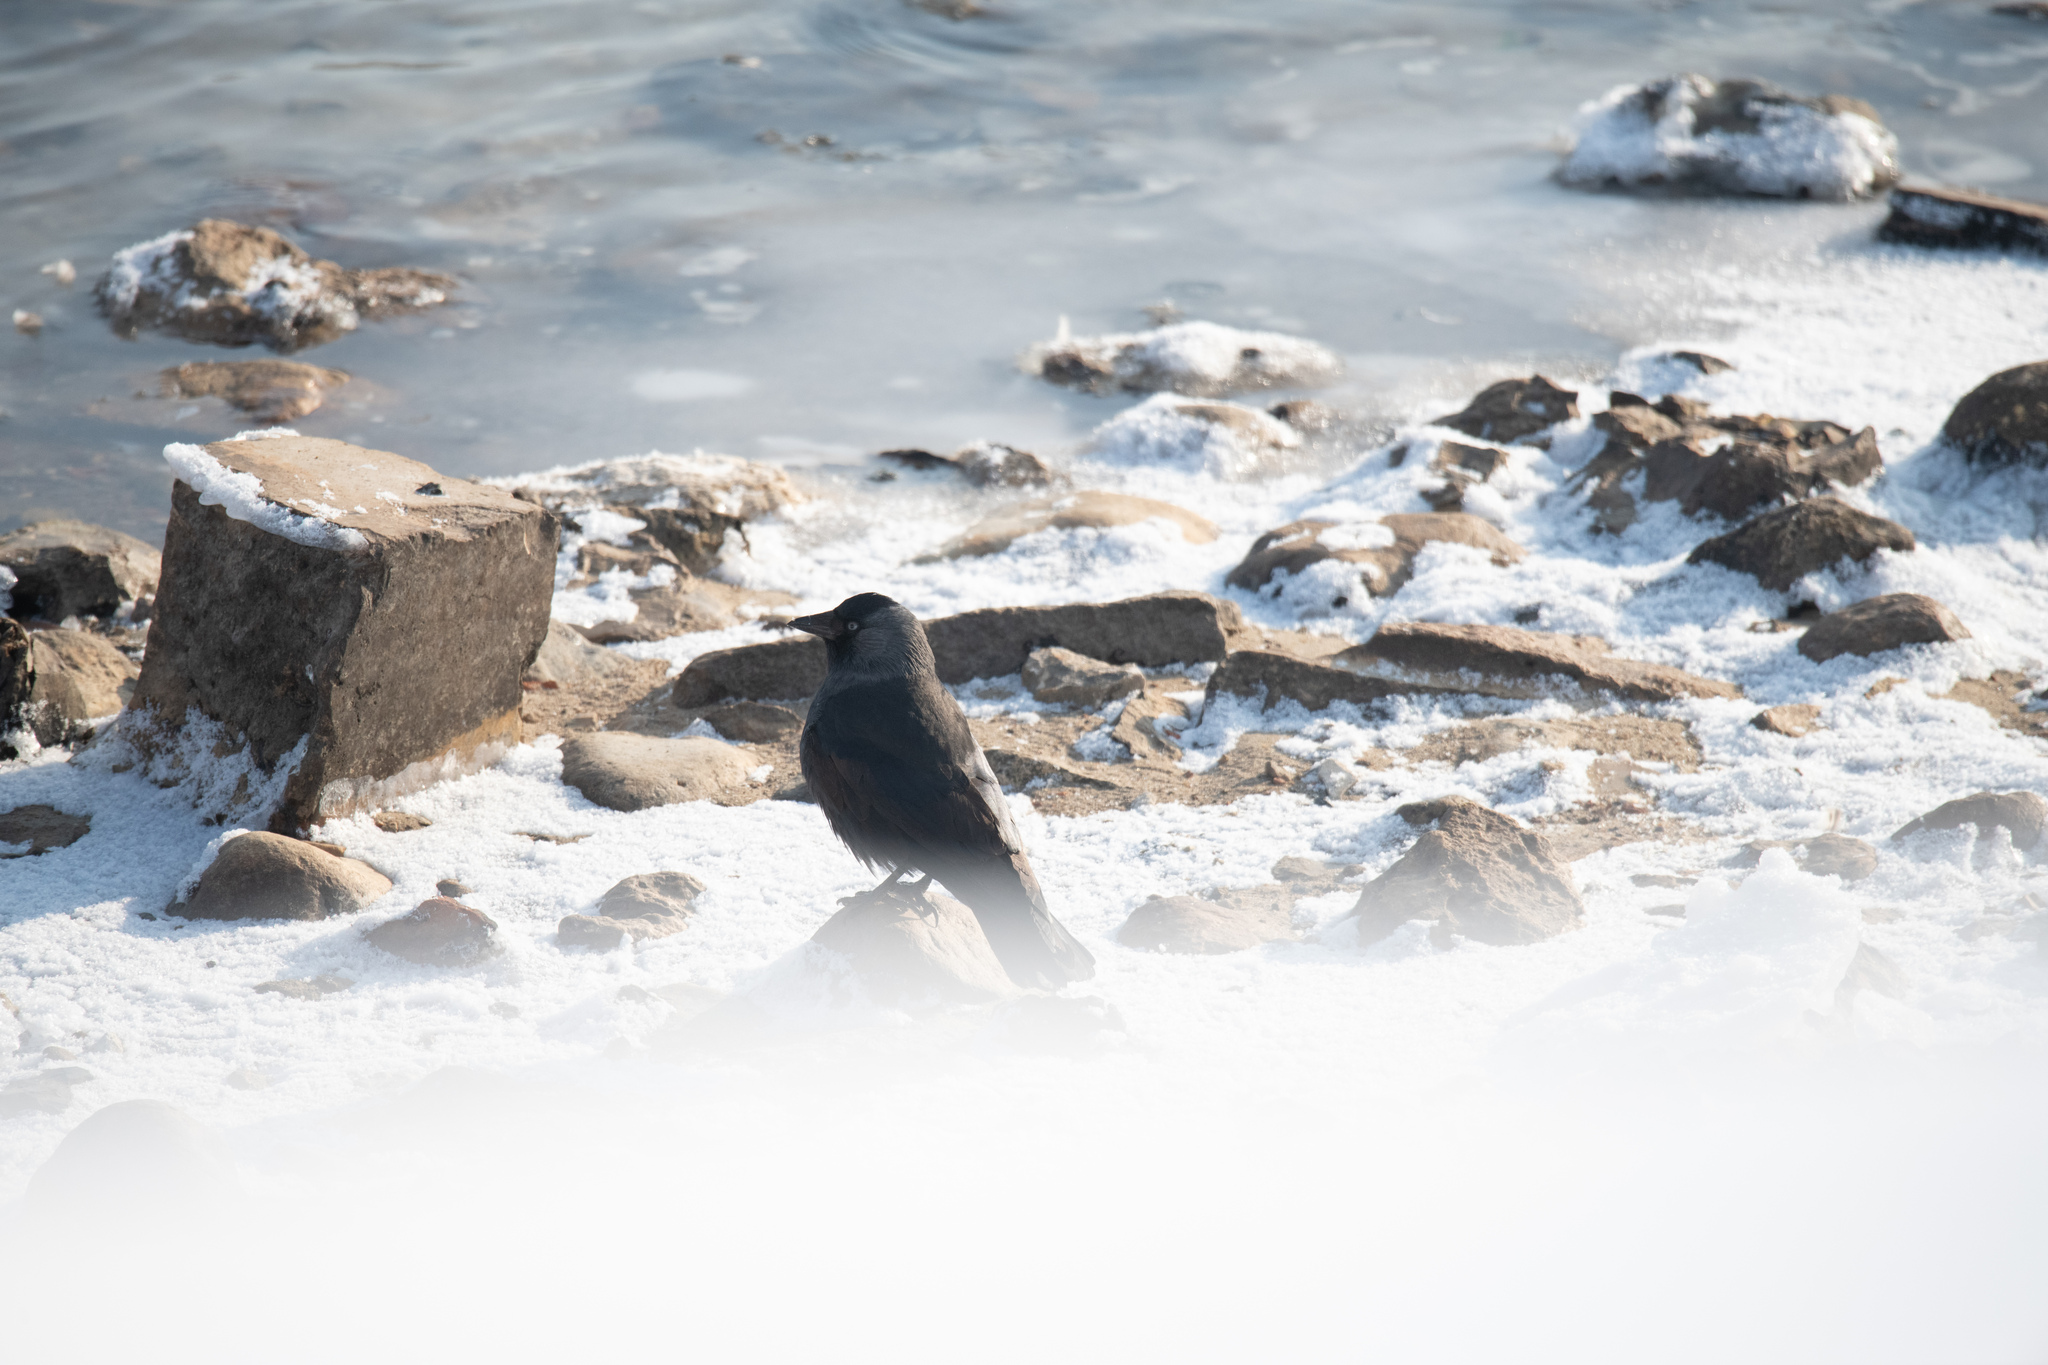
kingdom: Animalia
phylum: Chordata
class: Aves
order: Passeriformes
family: Corvidae
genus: Coloeus
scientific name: Coloeus monedula
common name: Western jackdaw
